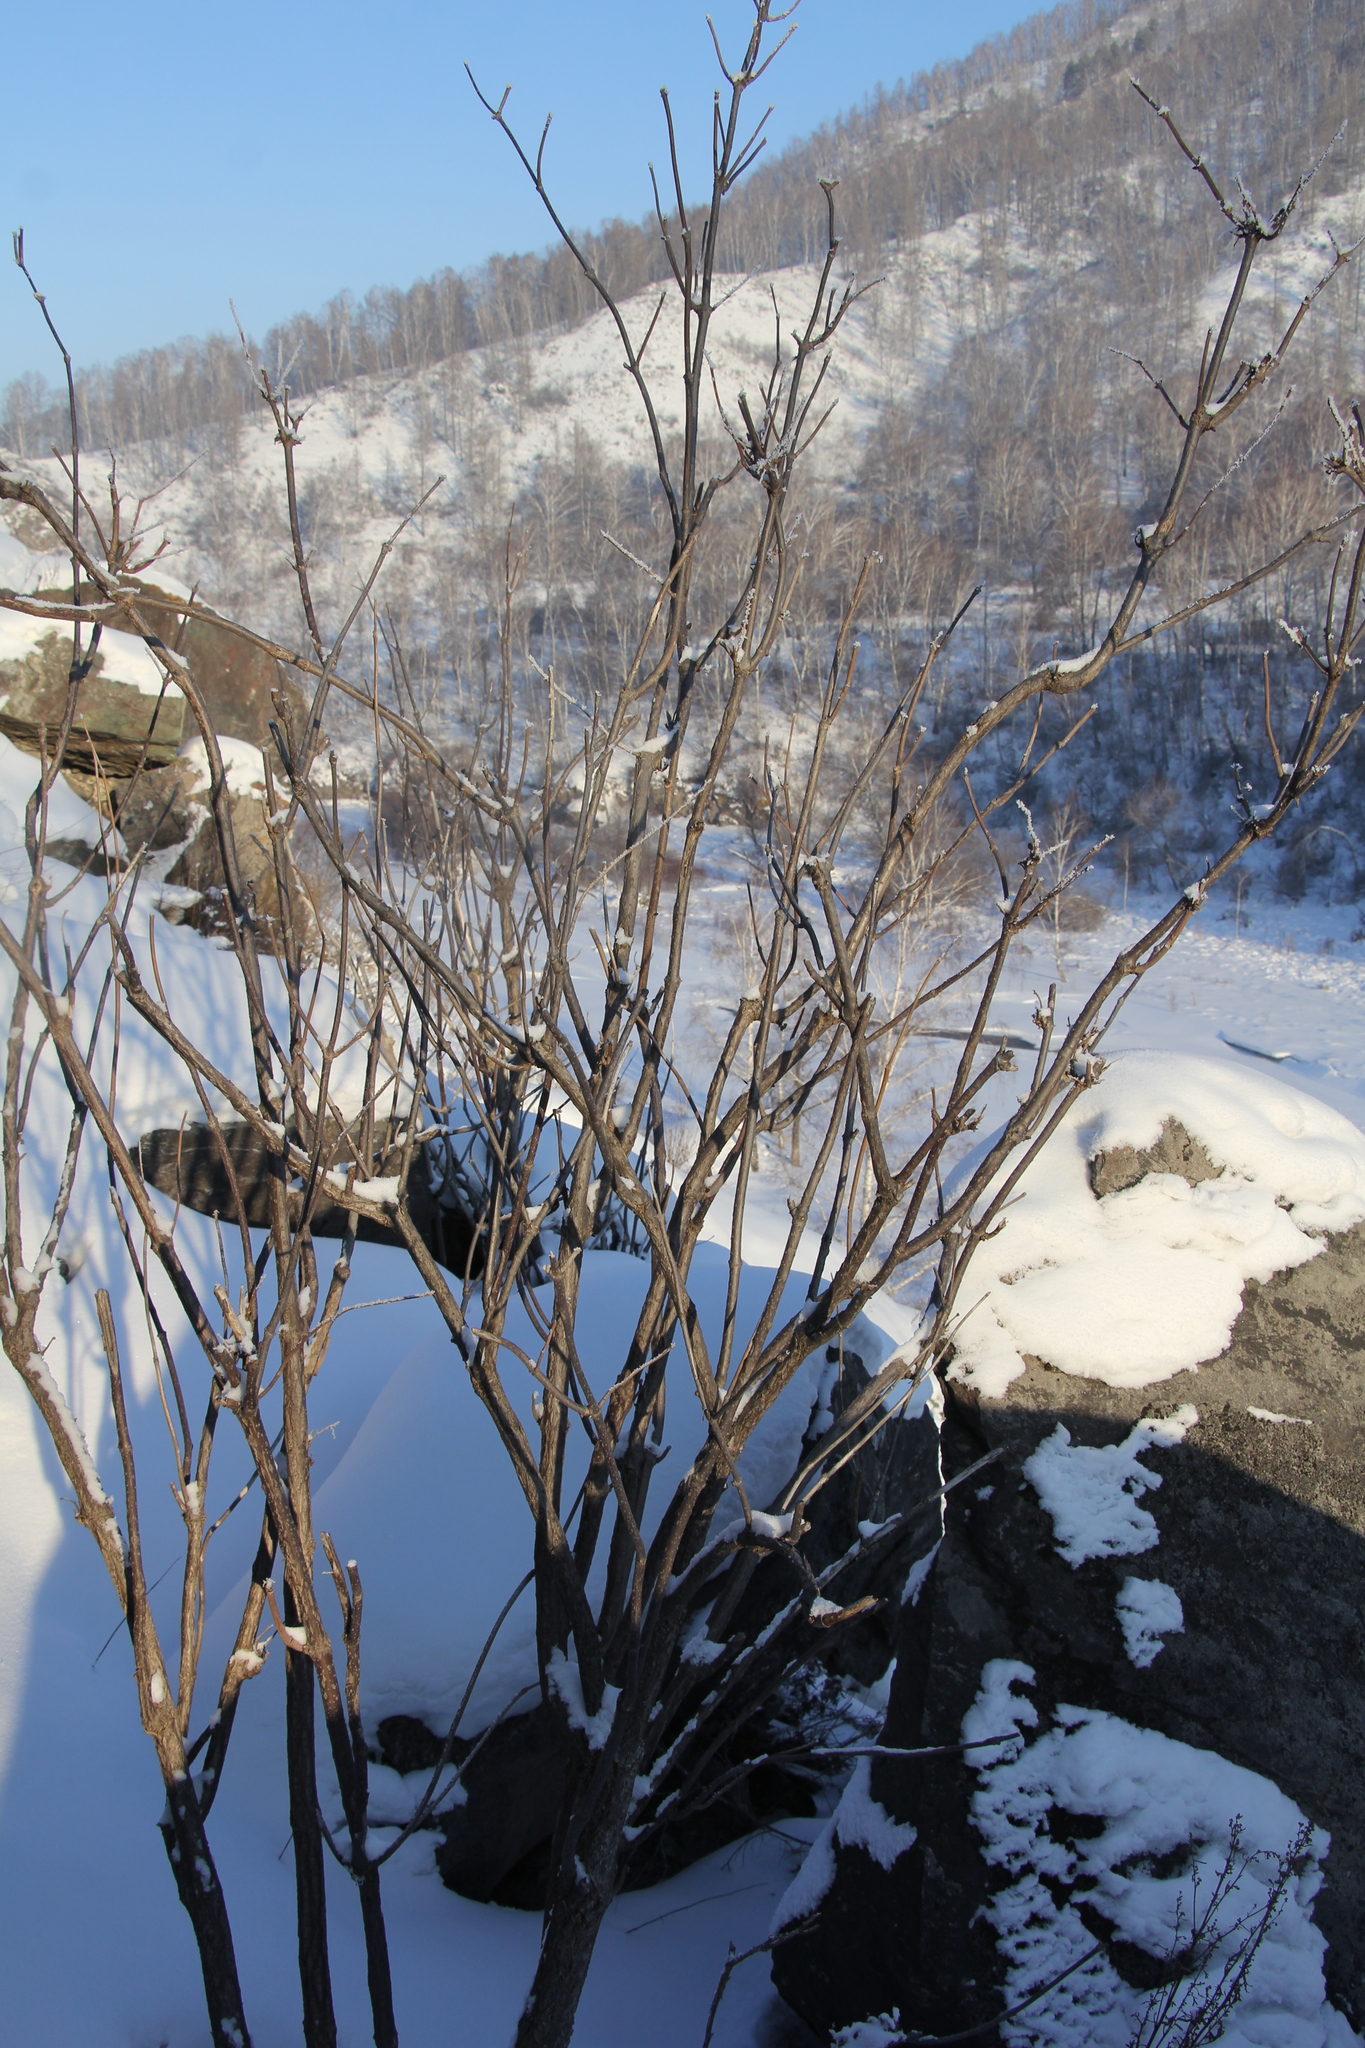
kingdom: Plantae
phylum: Tracheophyta
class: Magnoliopsida
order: Dipsacales
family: Viburnaceae
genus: Sambucus
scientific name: Sambucus sibirica
